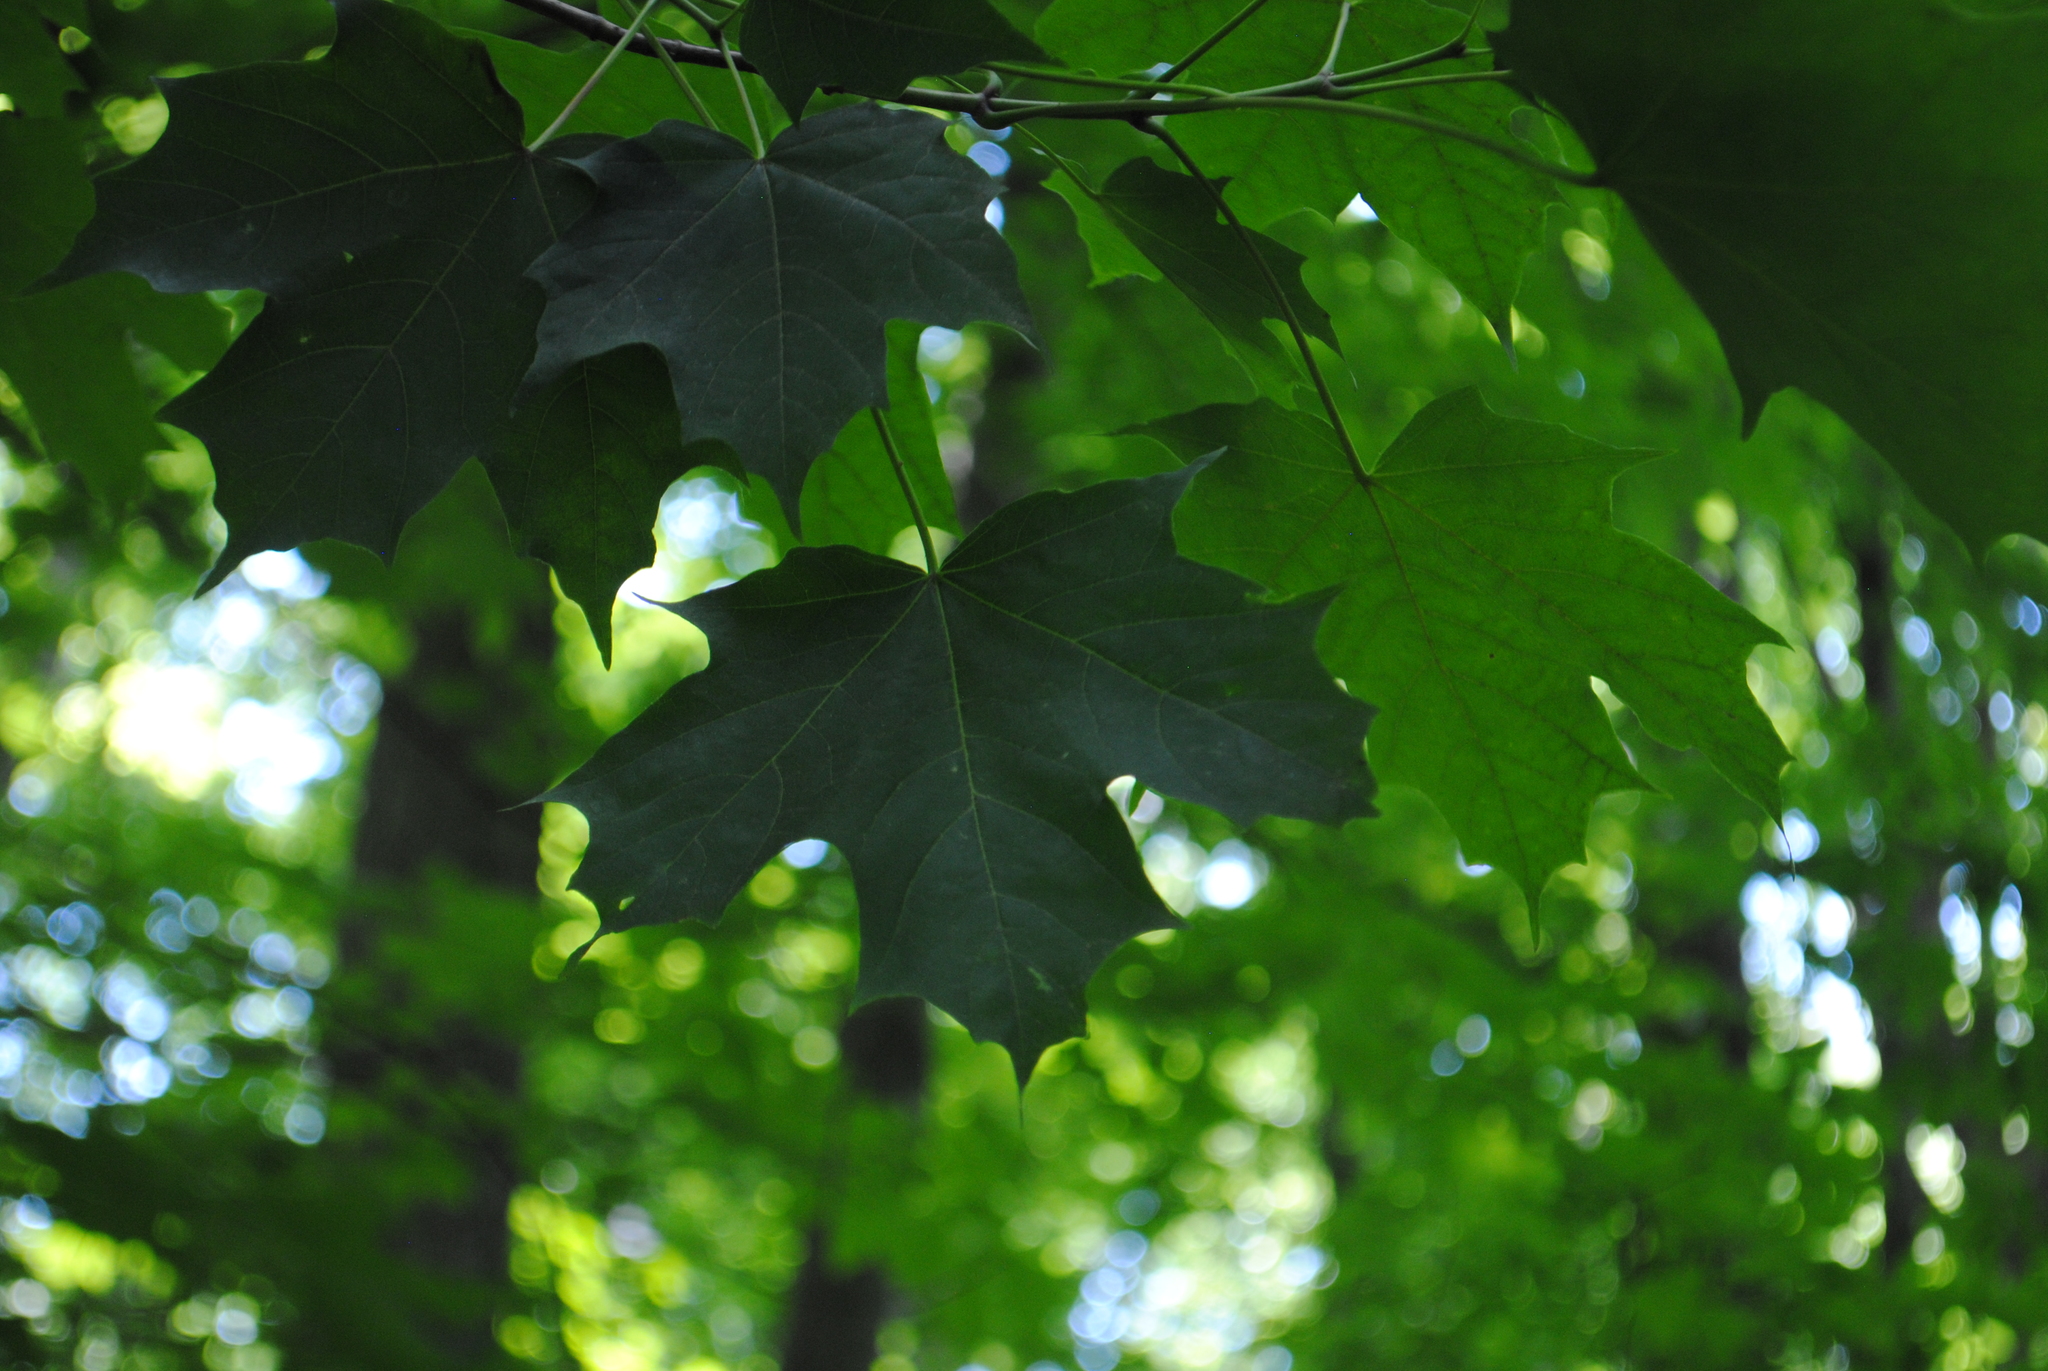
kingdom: Plantae
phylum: Tracheophyta
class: Magnoliopsida
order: Sapindales
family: Sapindaceae
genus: Acer
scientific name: Acer saccharum
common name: Sugar maple
